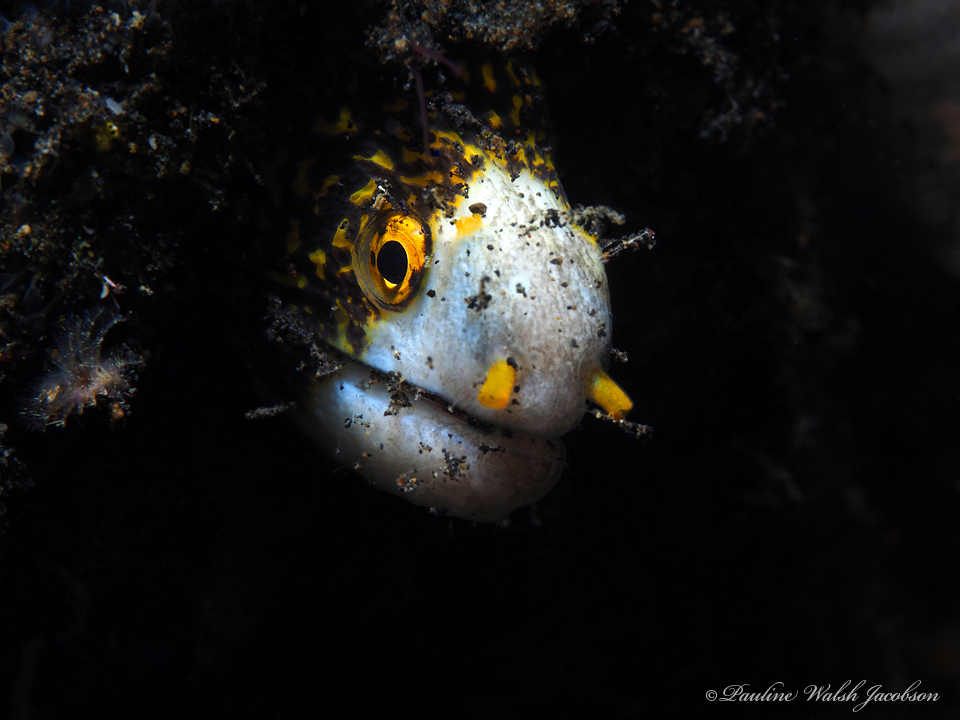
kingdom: Animalia
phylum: Chordata
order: Anguilliformes
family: Muraenidae
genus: Echidna
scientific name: Echidna nebulosa
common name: Snowflake moray
